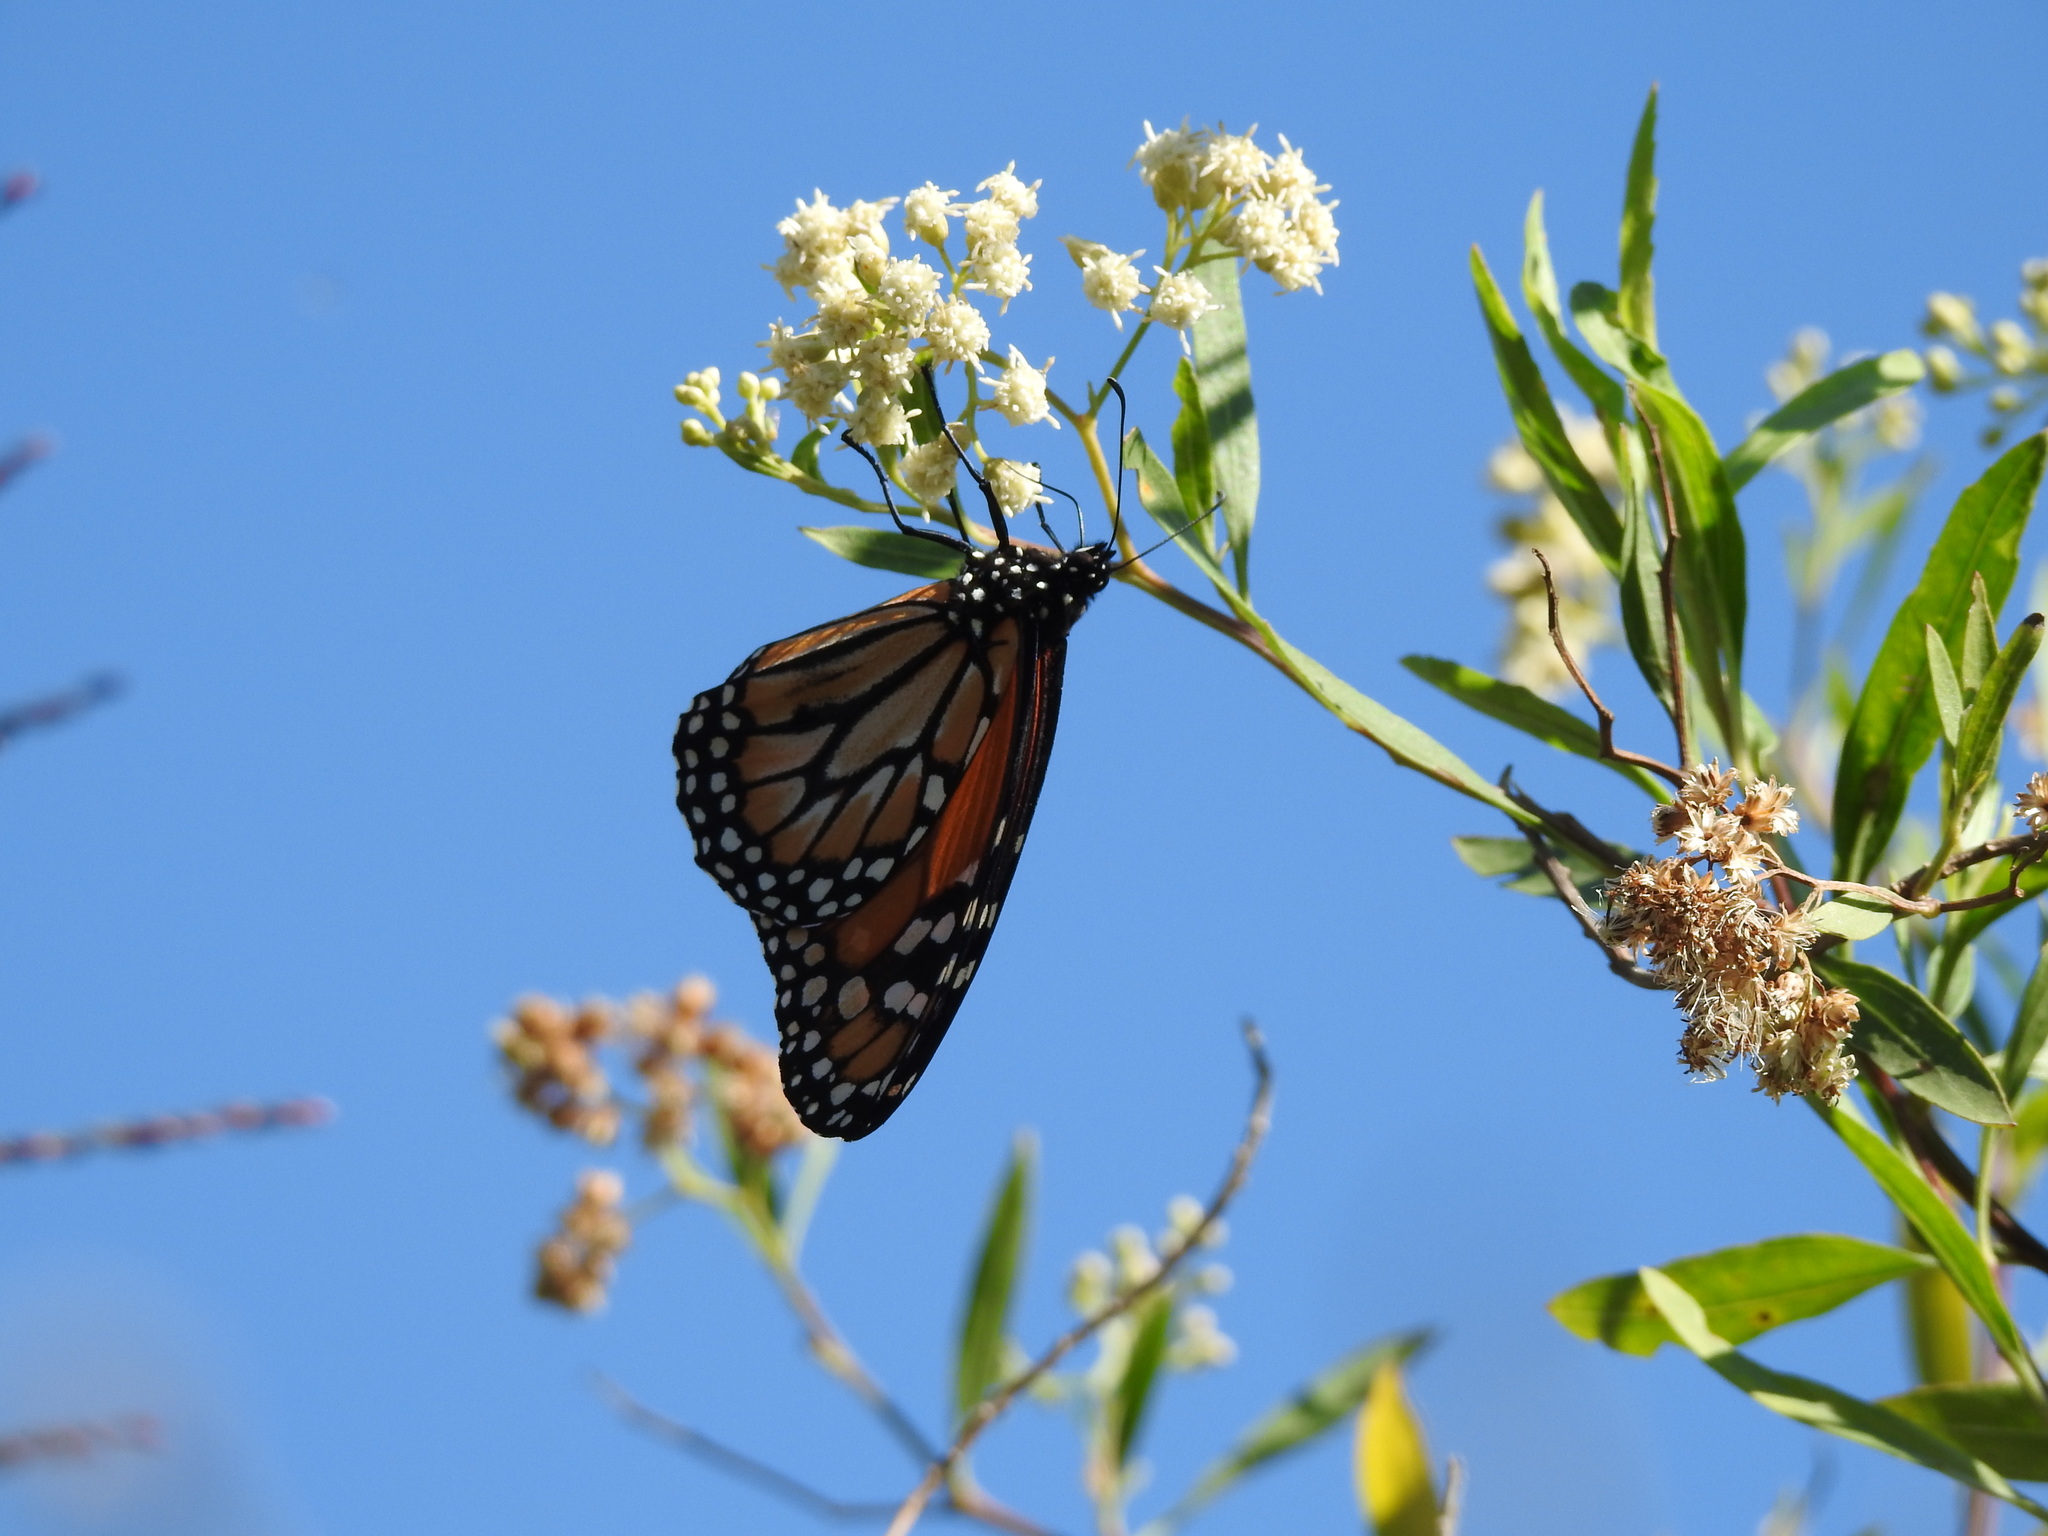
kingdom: Animalia
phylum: Arthropoda
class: Insecta
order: Lepidoptera
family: Nymphalidae
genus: Danaus
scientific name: Danaus erippus
